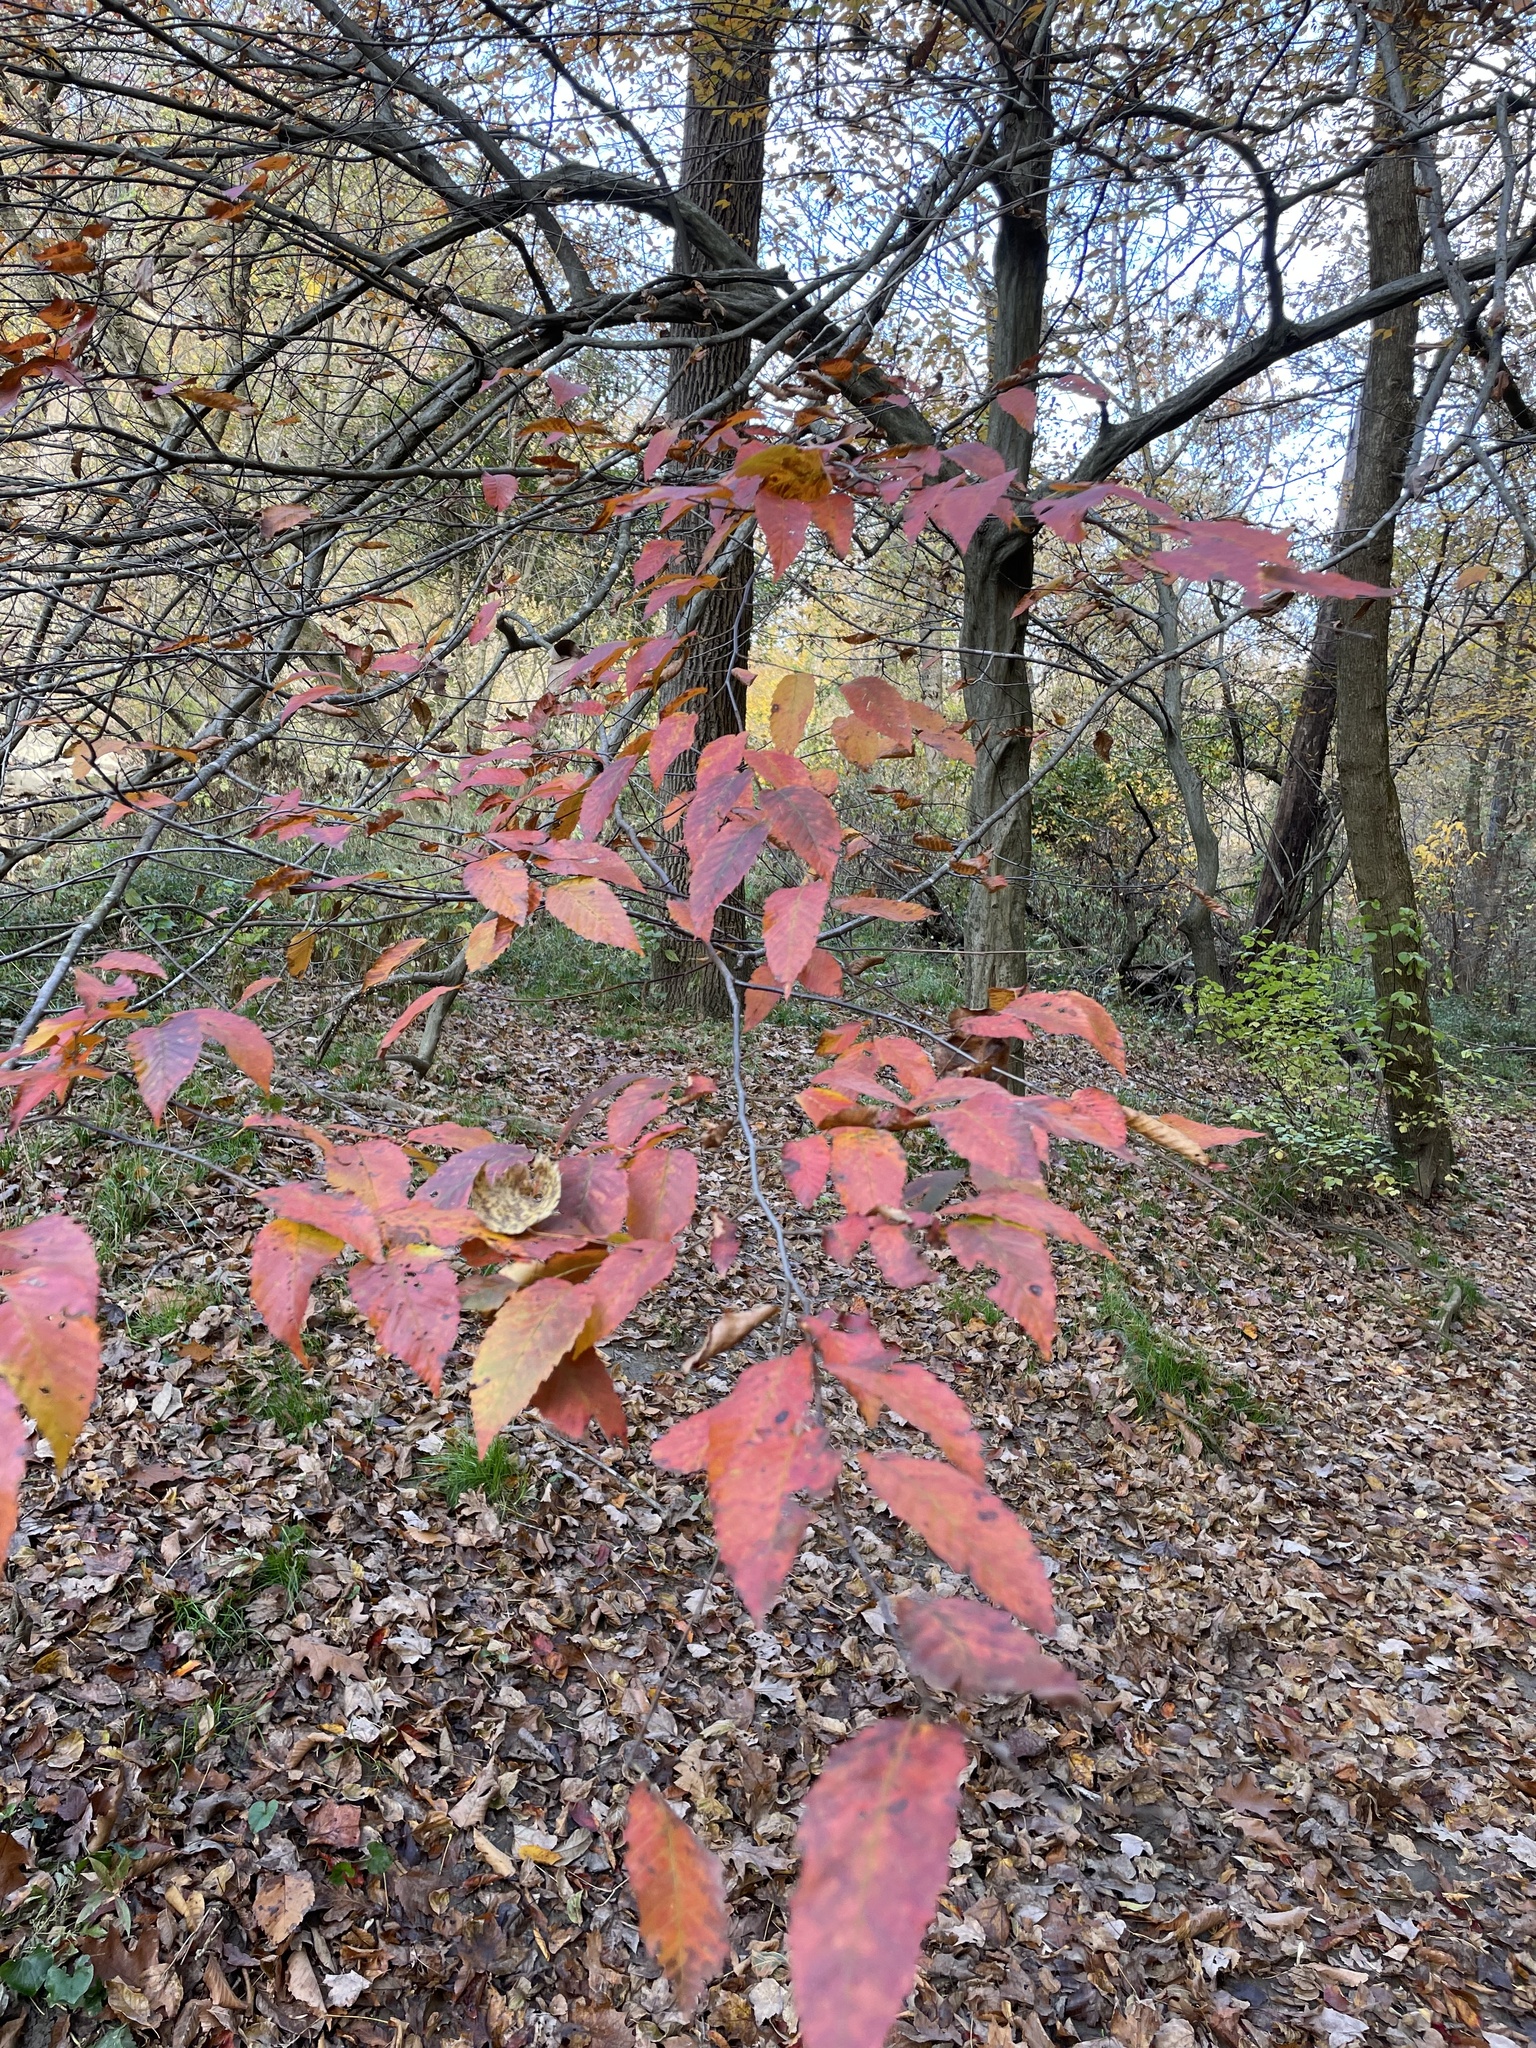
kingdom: Plantae
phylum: Tracheophyta
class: Magnoliopsida
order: Fagales
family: Betulaceae
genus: Carpinus
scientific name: Carpinus caroliniana
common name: American hornbeam
